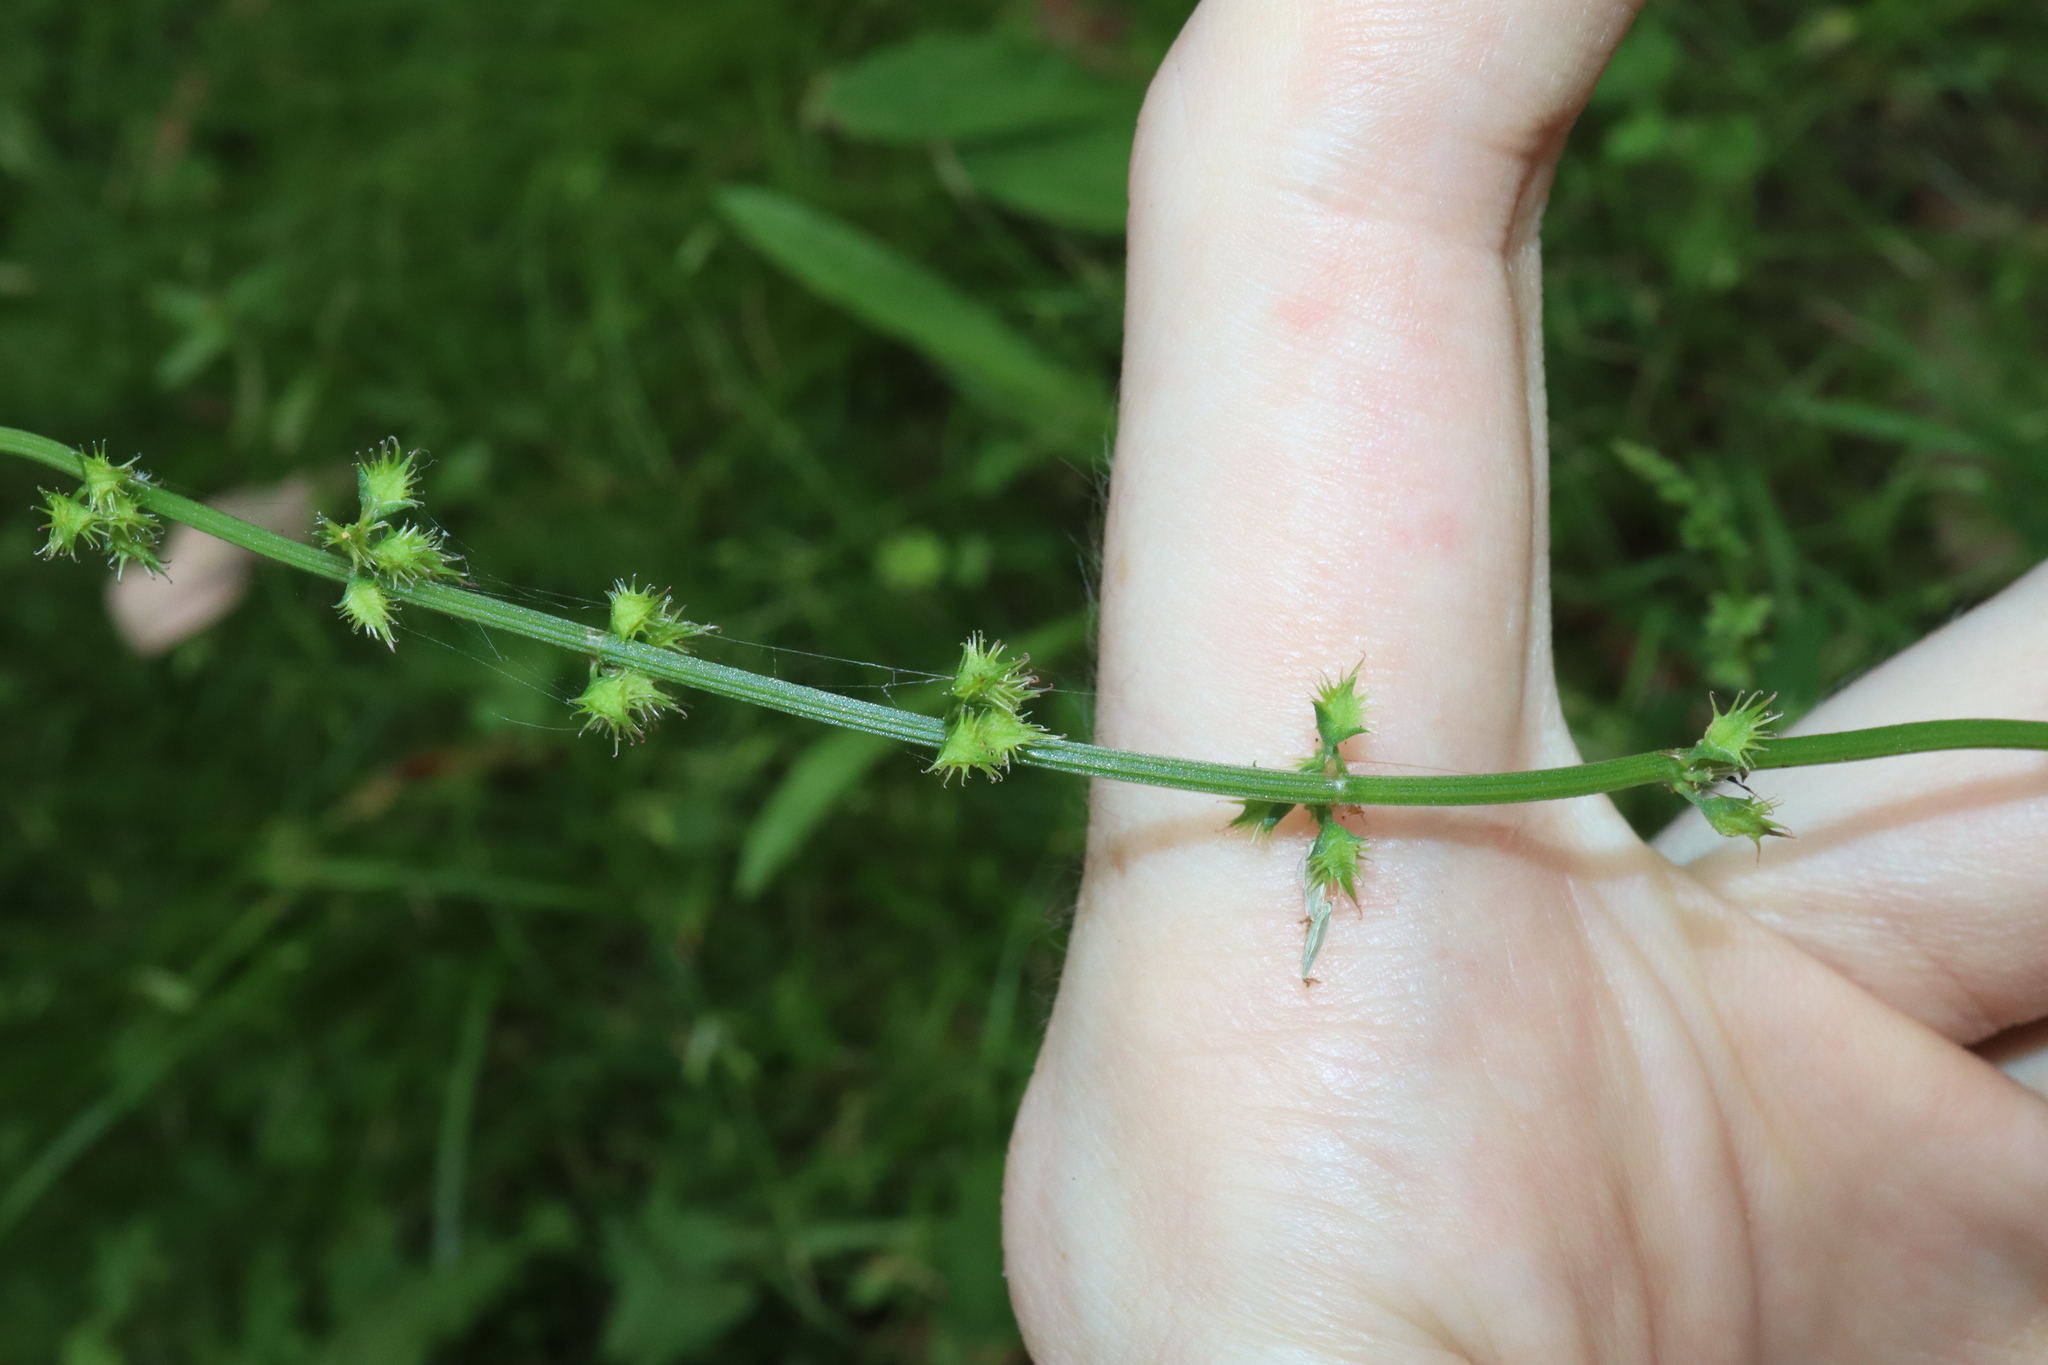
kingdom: Plantae
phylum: Tracheophyta
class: Magnoliopsida
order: Caryophyllales
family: Polygonaceae
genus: Rumex
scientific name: Rumex brownii
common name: Hooked dock
